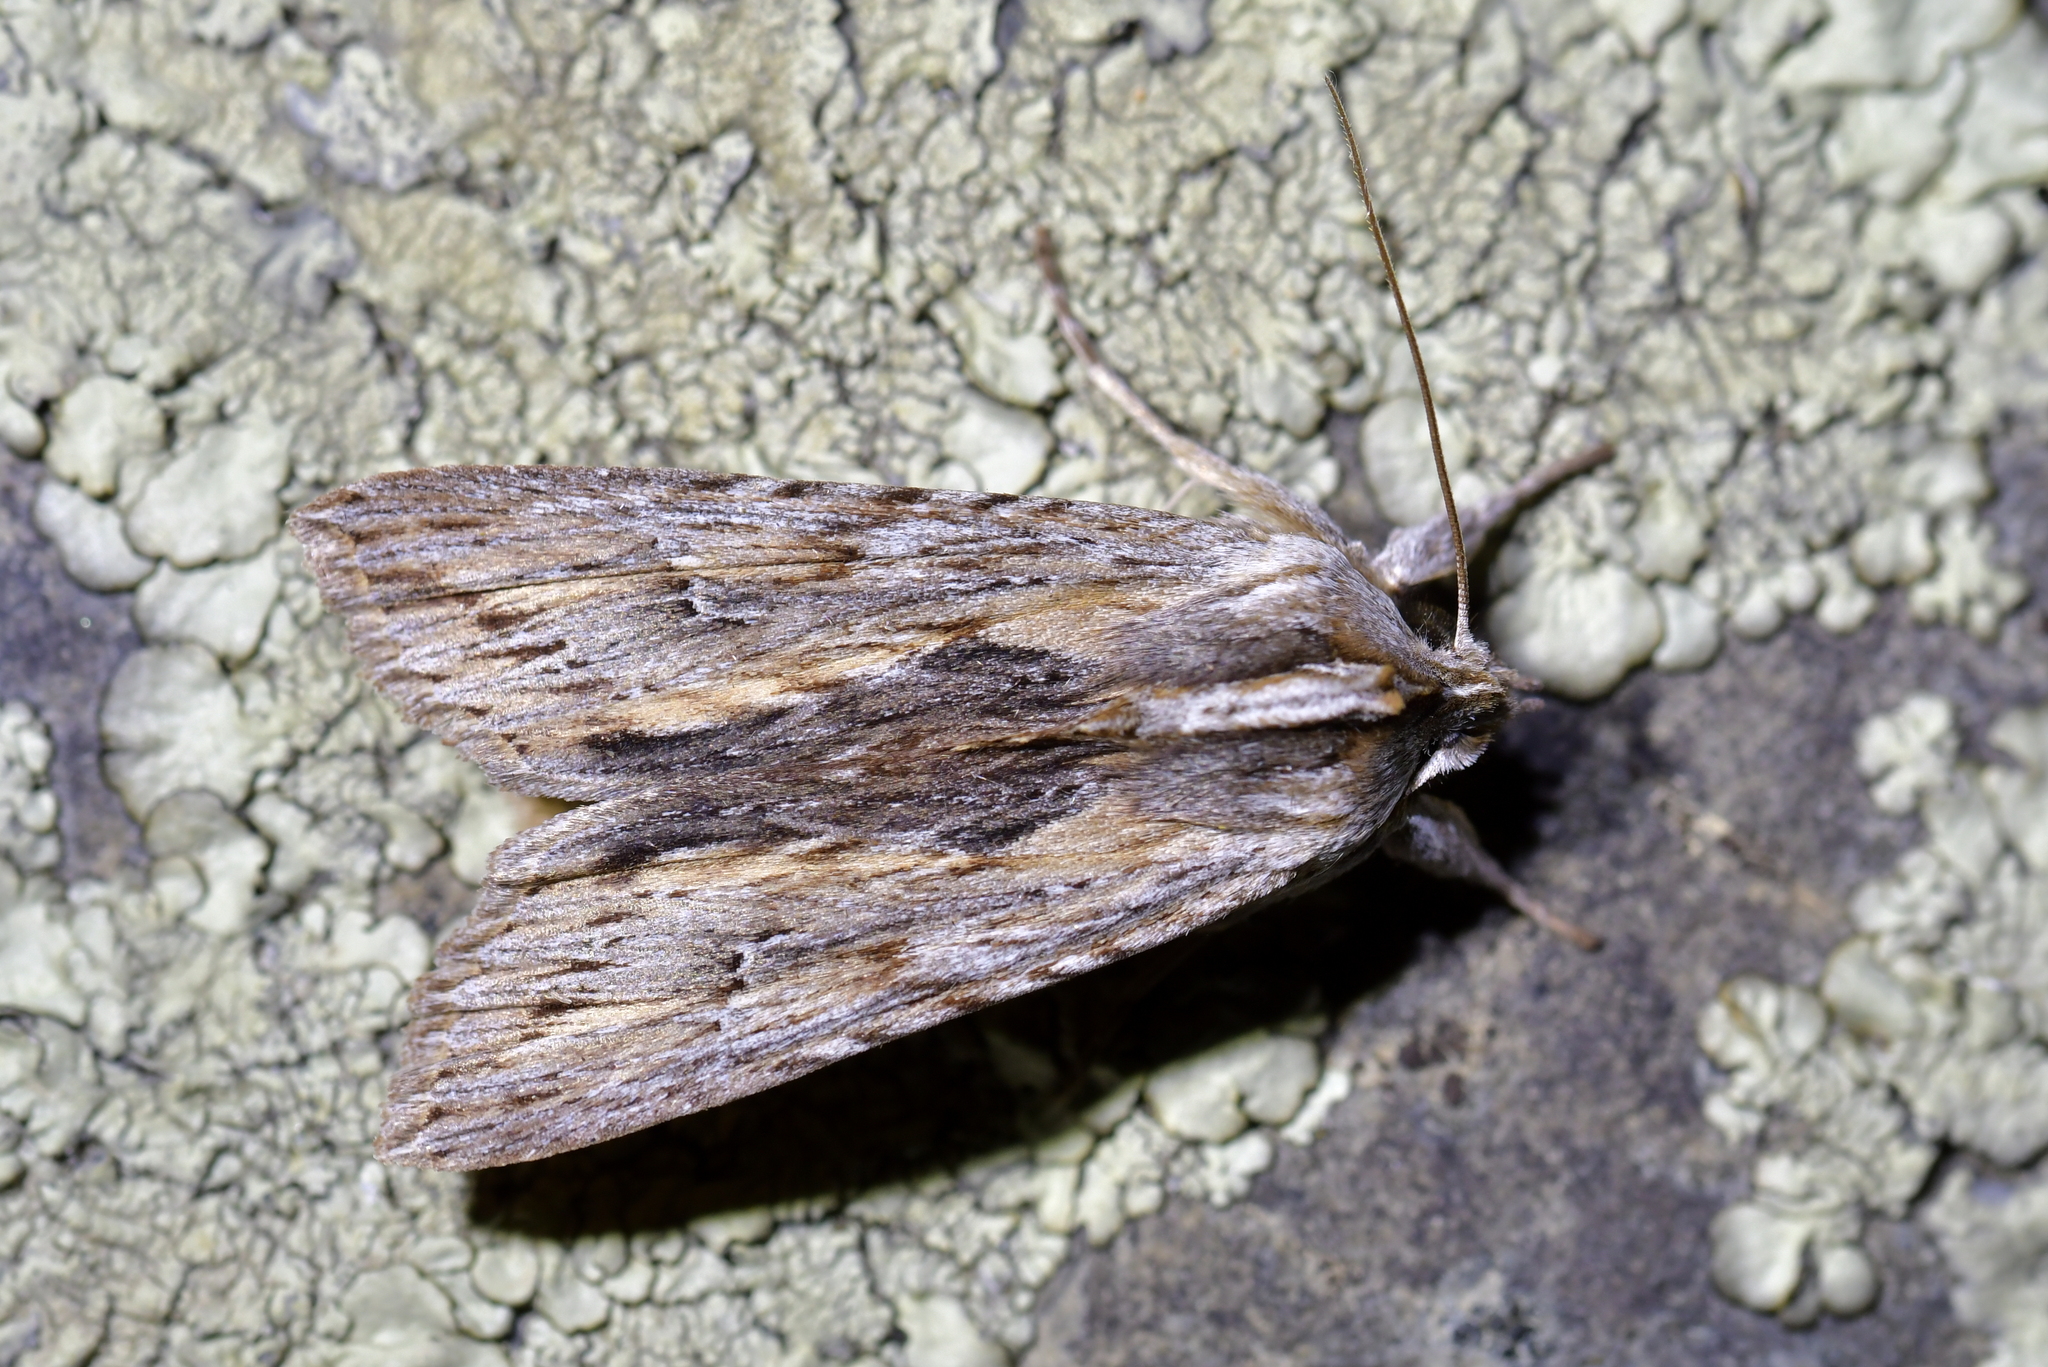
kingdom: Animalia
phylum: Arthropoda
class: Insecta
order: Lepidoptera
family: Noctuidae
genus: Physetica
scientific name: Physetica prionistis
